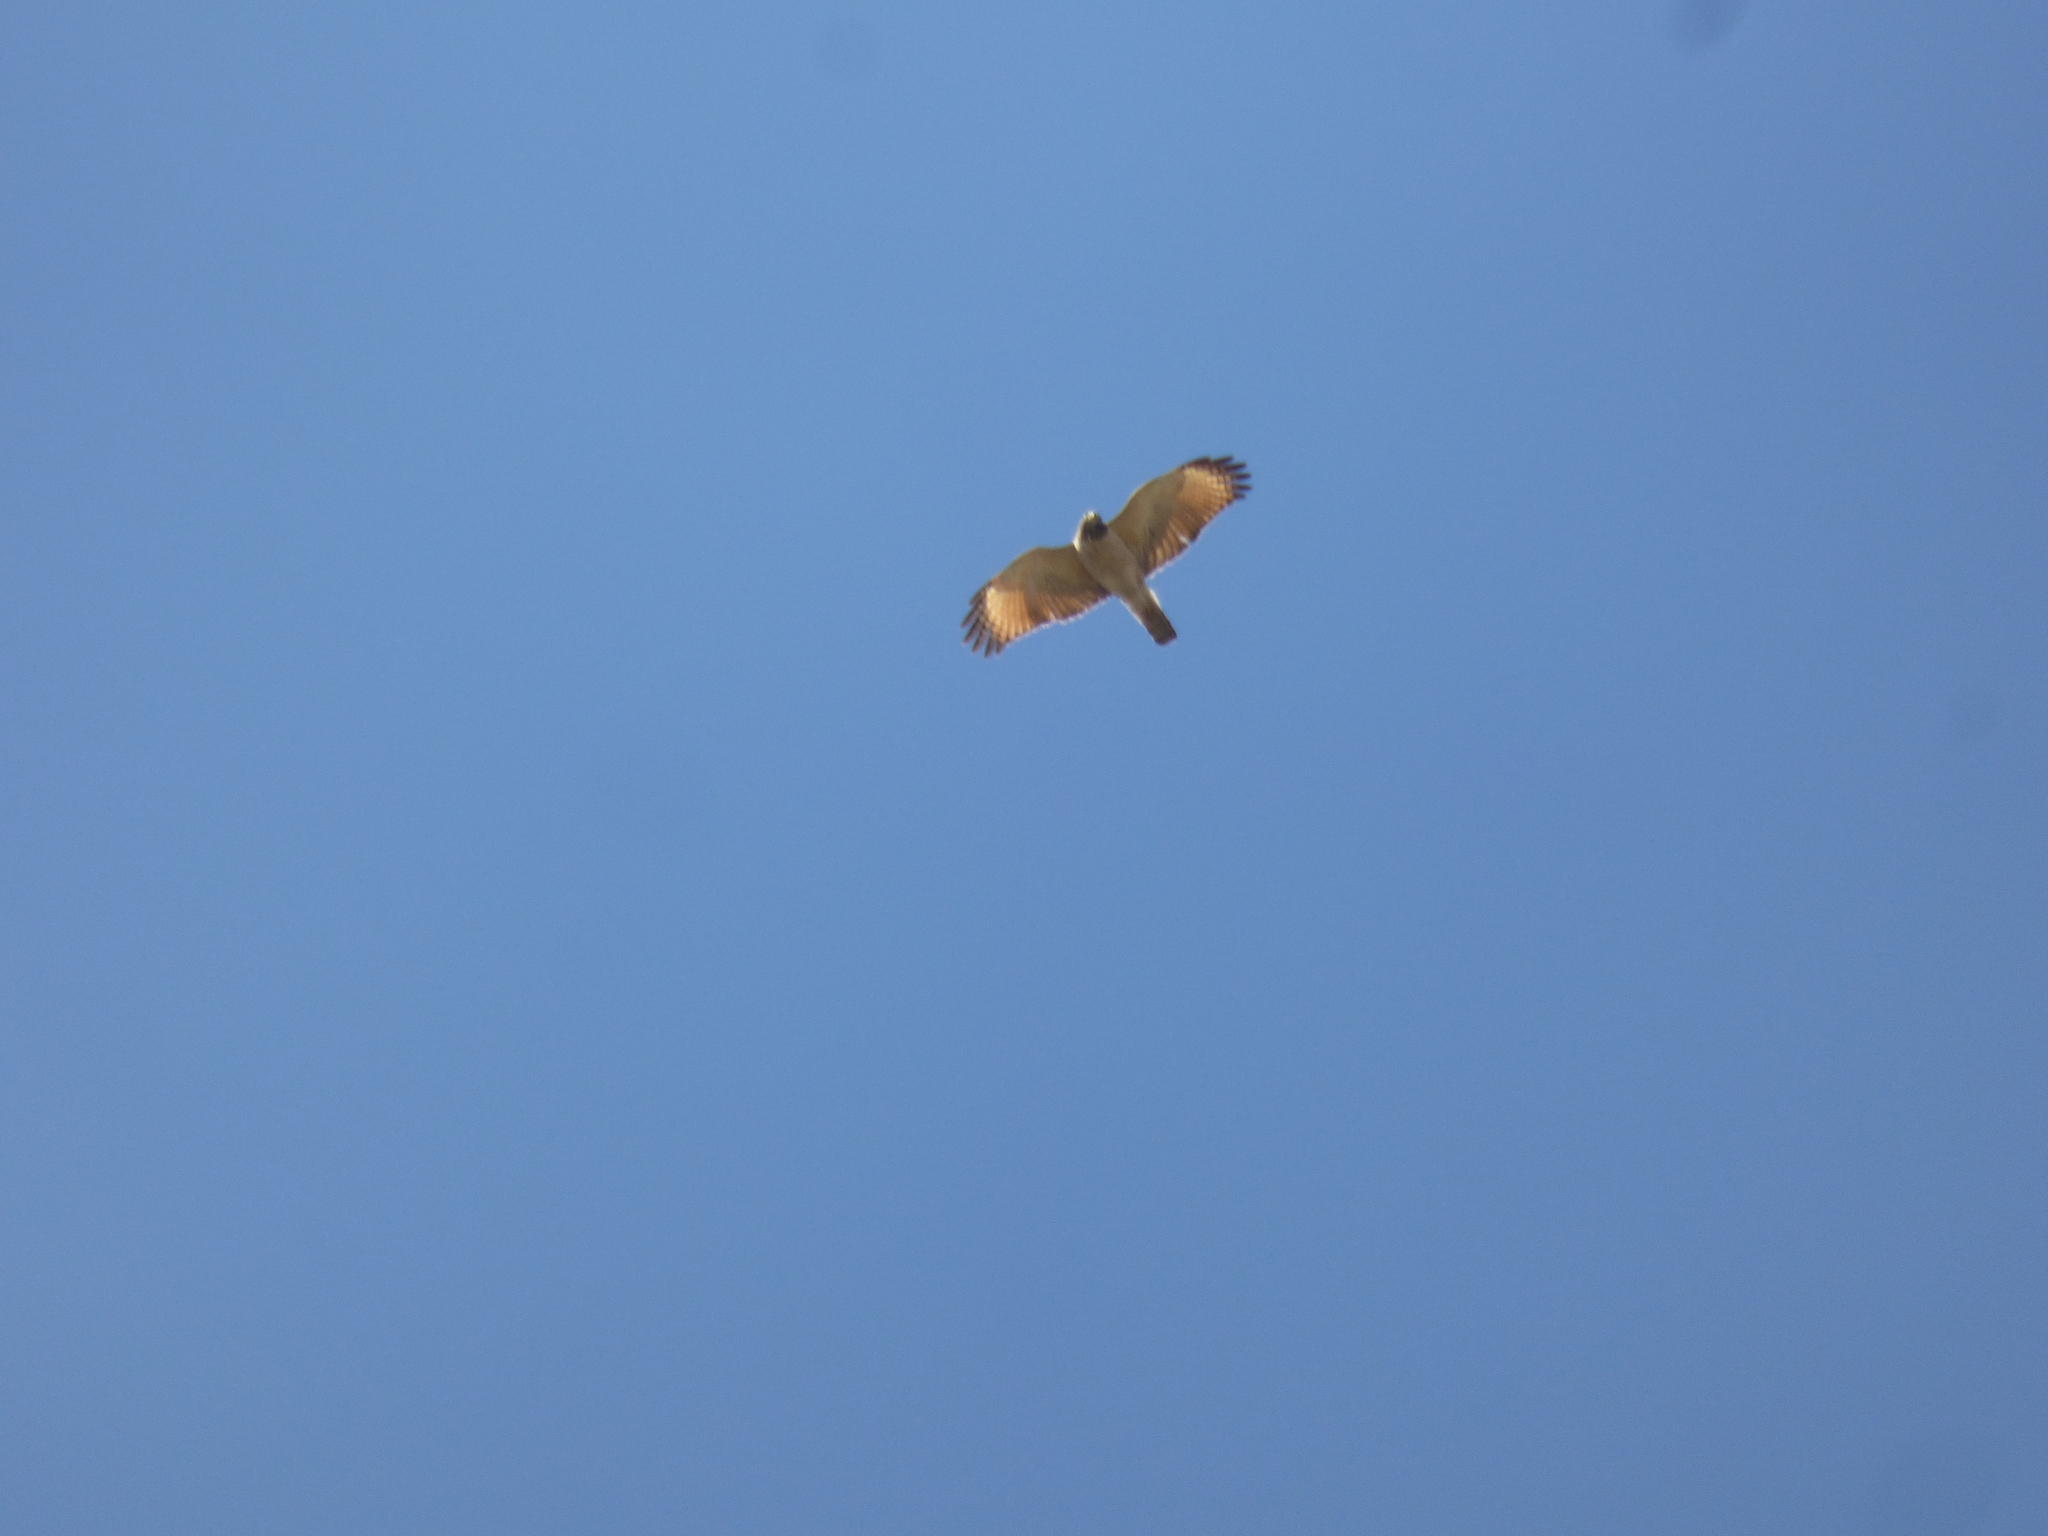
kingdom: Animalia
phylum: Chordata
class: Aves
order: Accipitriformes
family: Accipitridae
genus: Rupornis
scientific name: Rupornis magnirostris
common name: Roadside hawk
